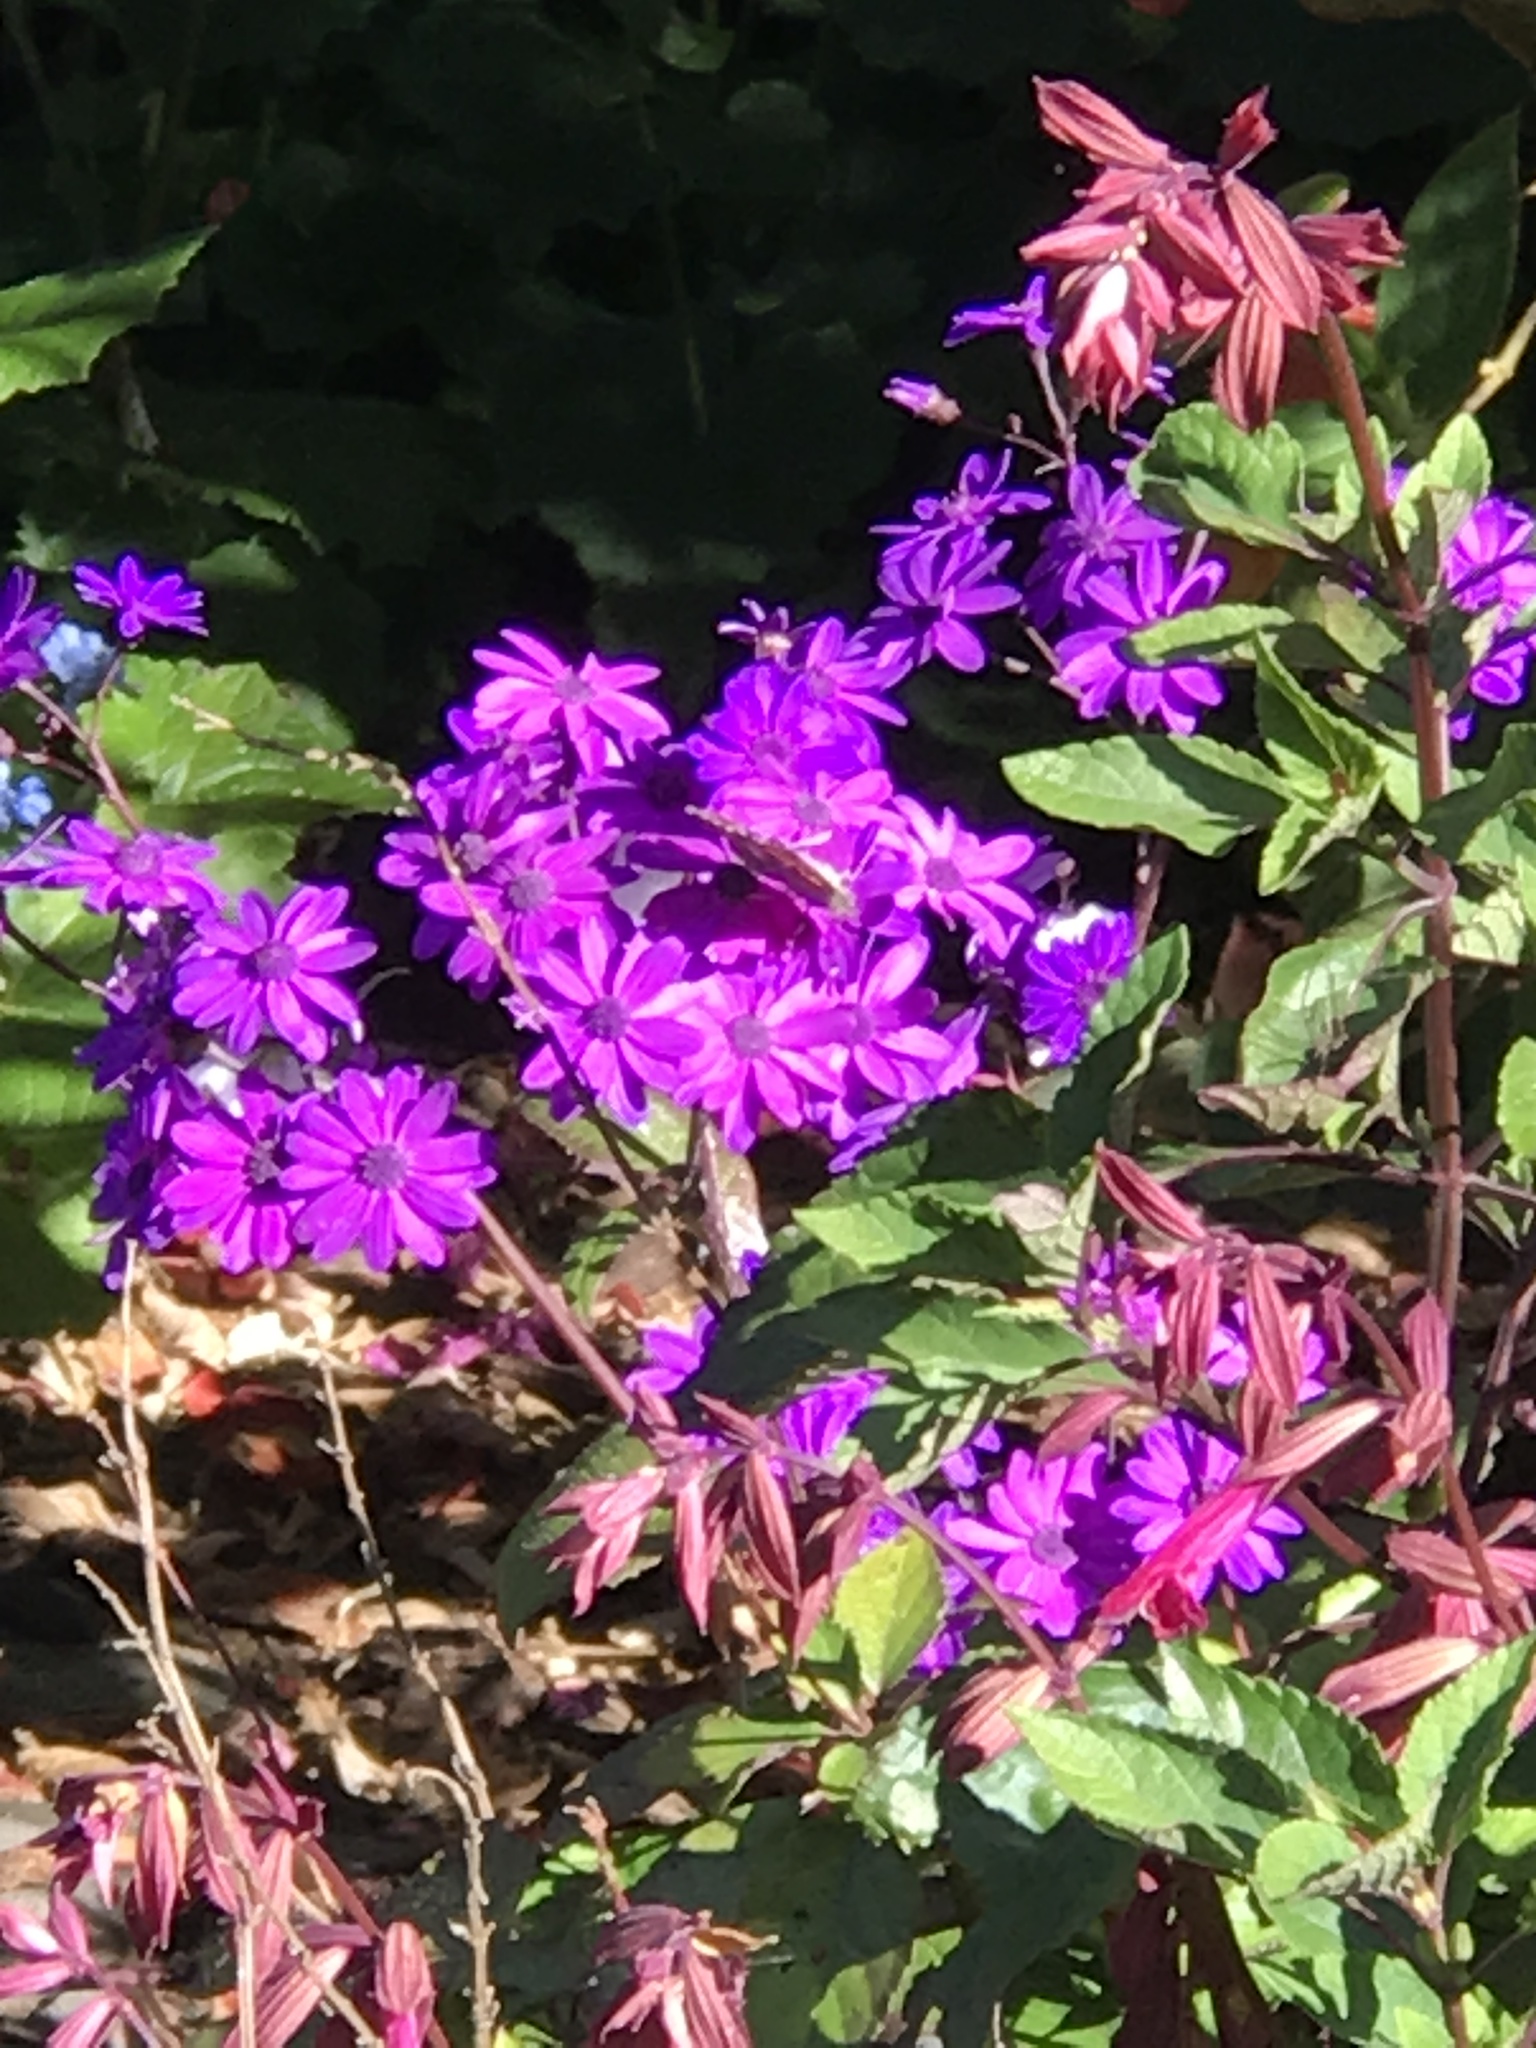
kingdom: Animalia
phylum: Arthropoda
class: Insecta
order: Lepidoptera
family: Nymphalidae
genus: Vanessa
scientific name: Vanessa cardui
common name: Painted lady
